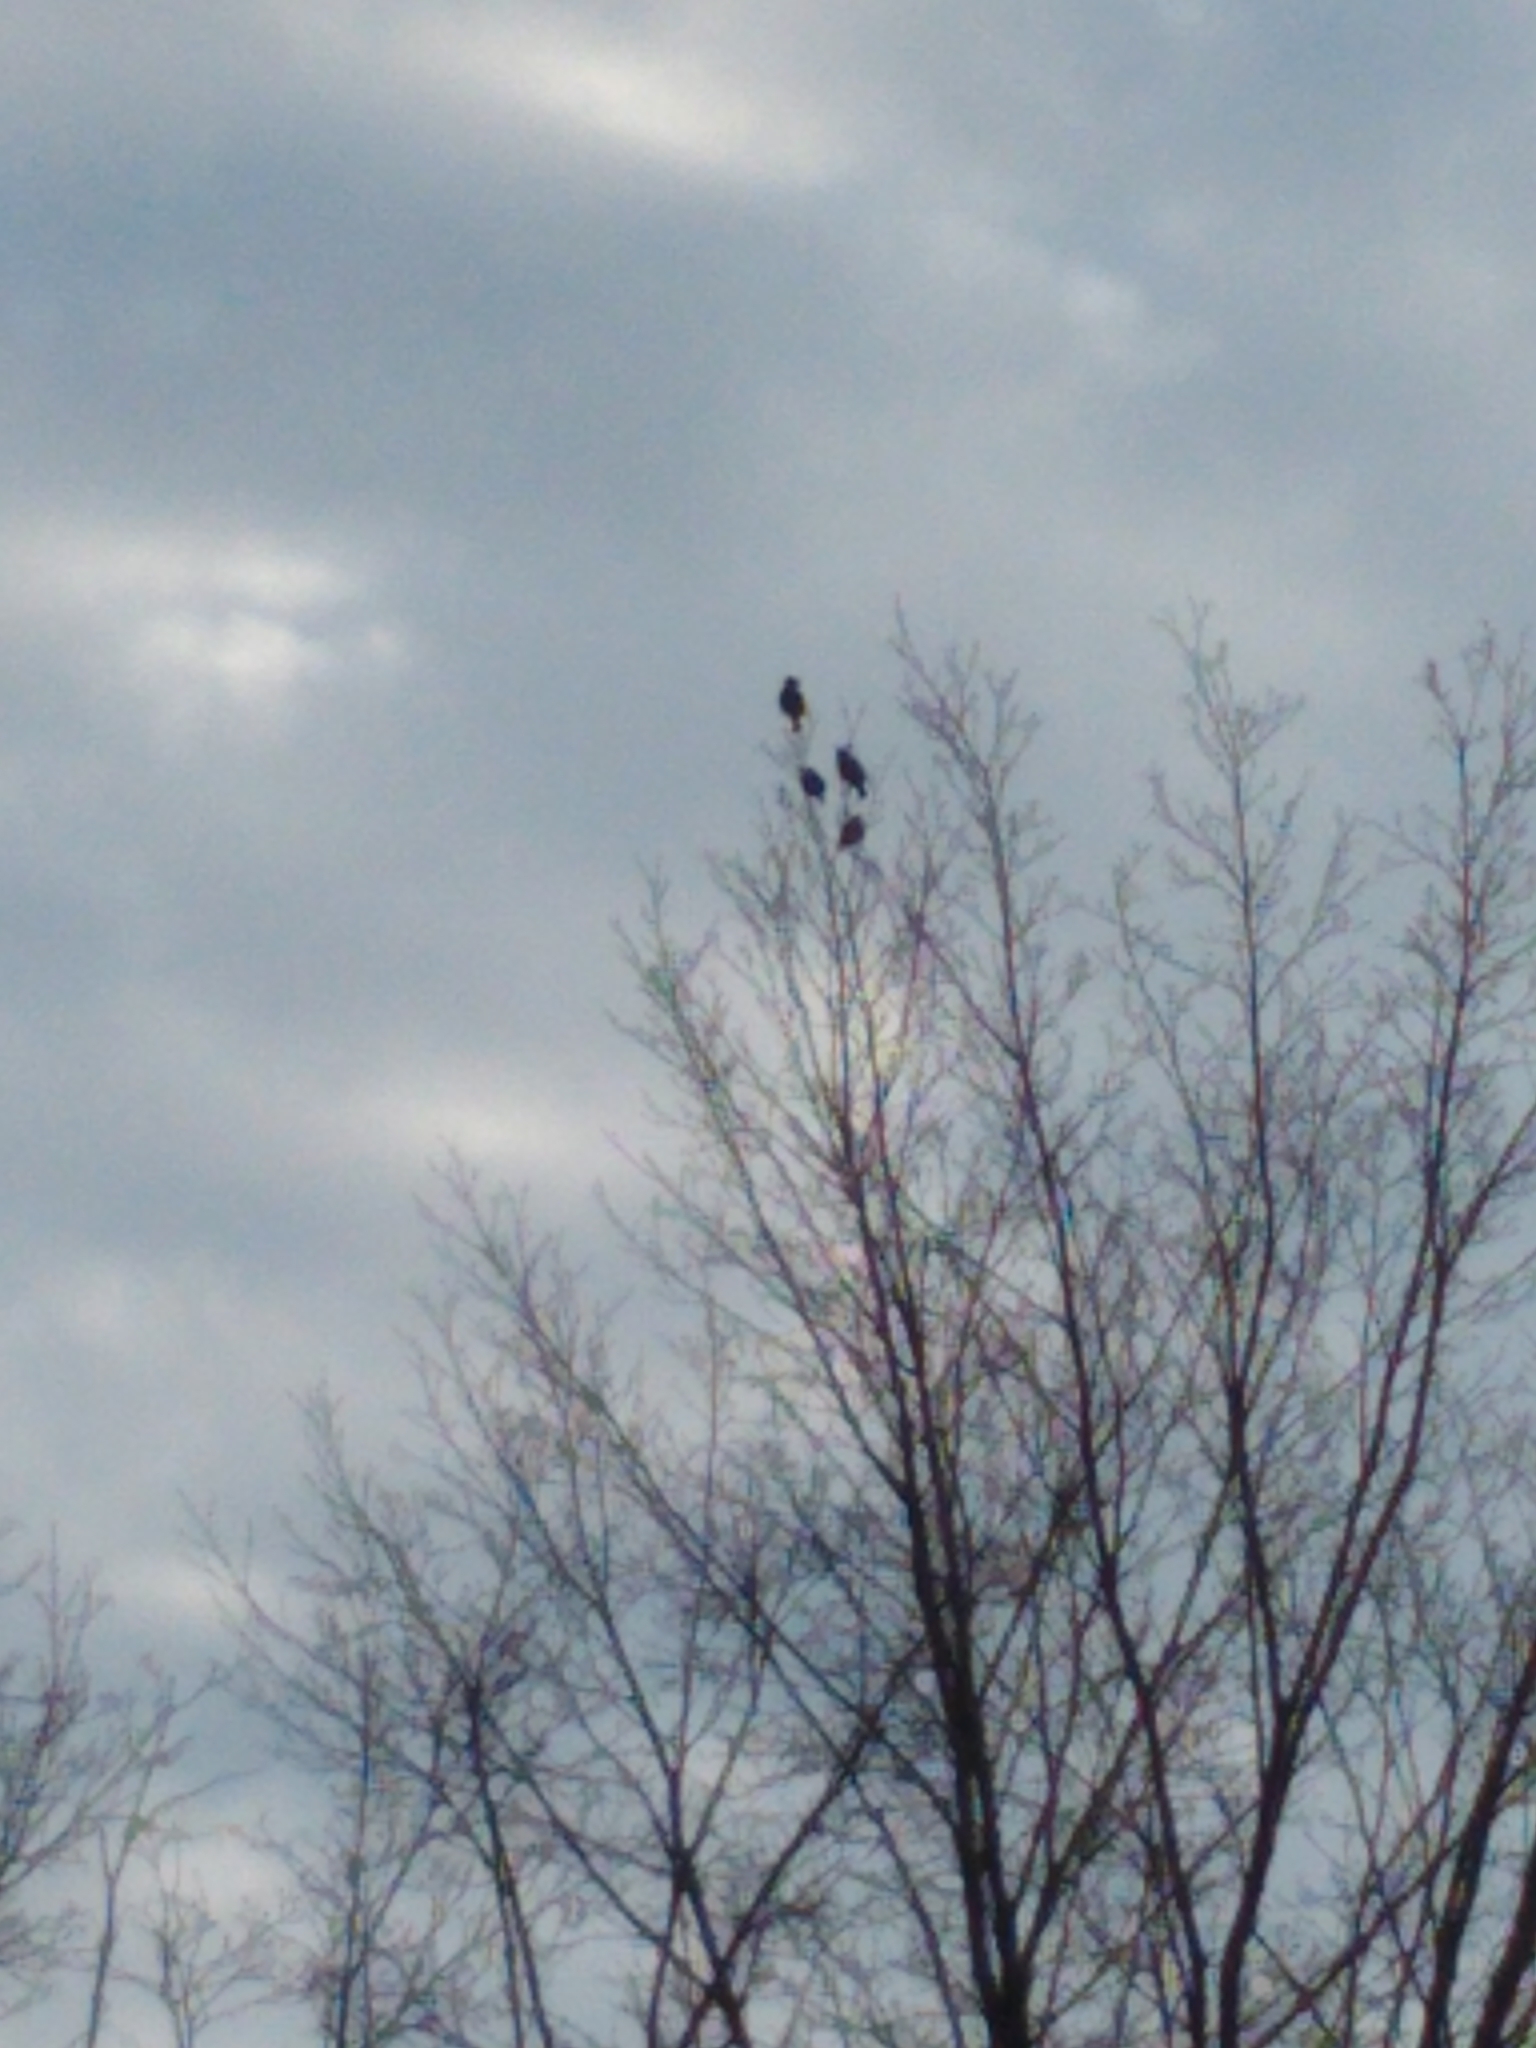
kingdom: Animalia
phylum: Chordata
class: Aves
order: Passeriformes
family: Sturnidae
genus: Sturnus
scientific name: Sturnus vulgaris
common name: Common starling
